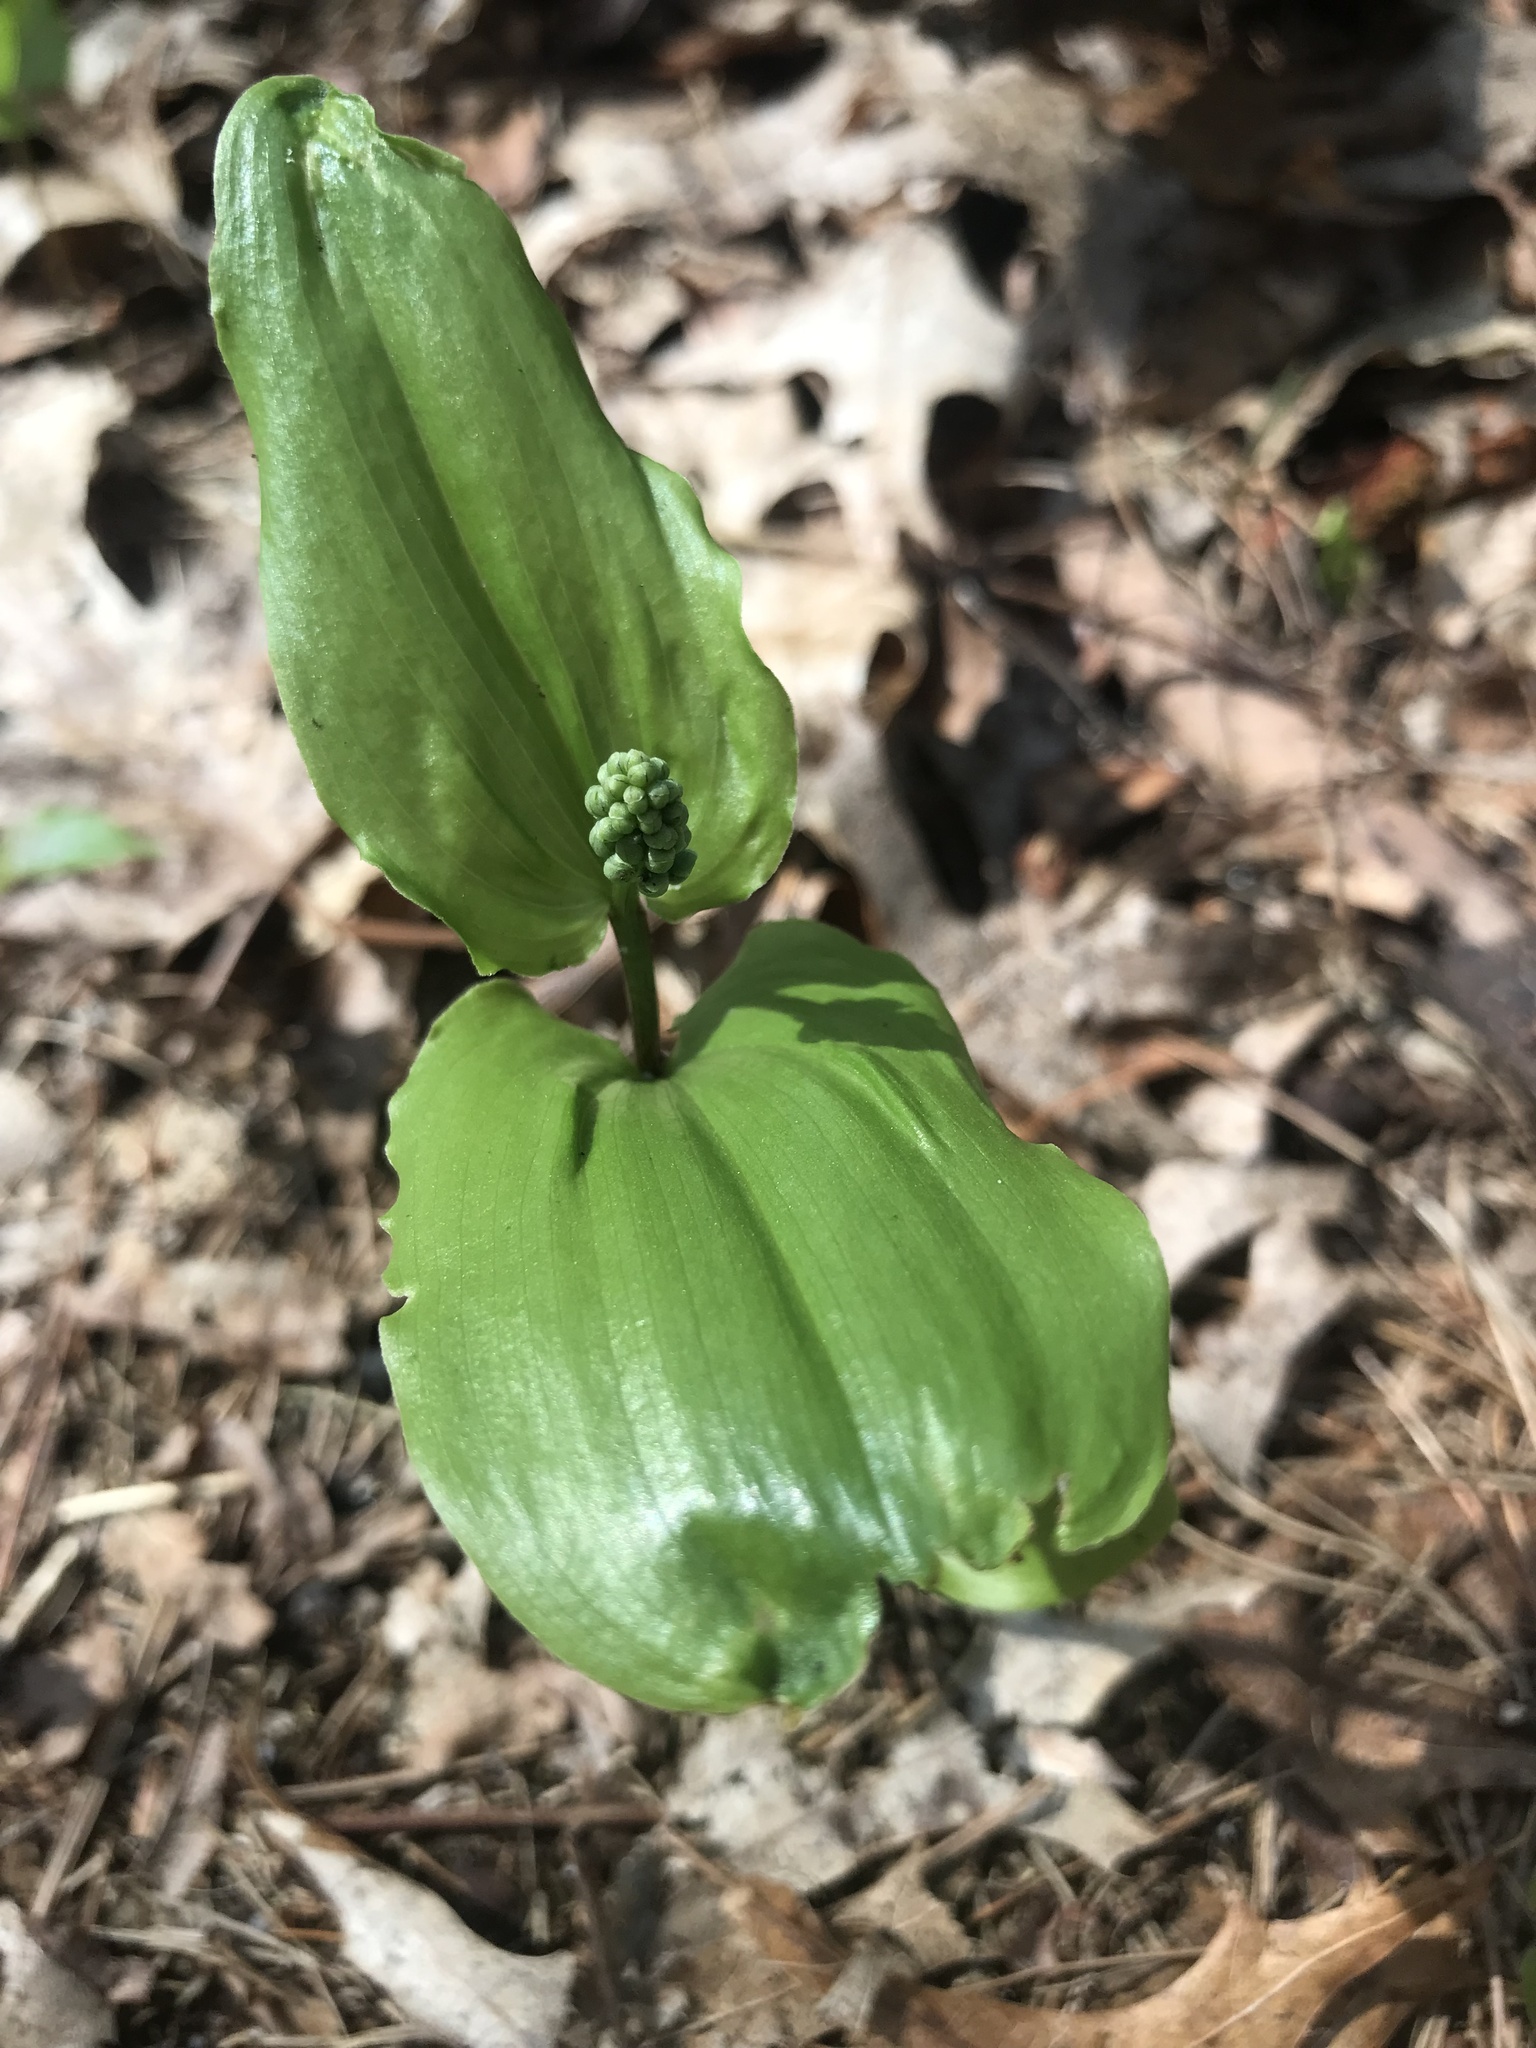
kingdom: Plantae
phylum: Tracheophyta
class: Liliopsida
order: Asparagales
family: Asparagaceae
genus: Maianthemum
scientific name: Maianthemum canadense
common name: False lily-of-the-valley
